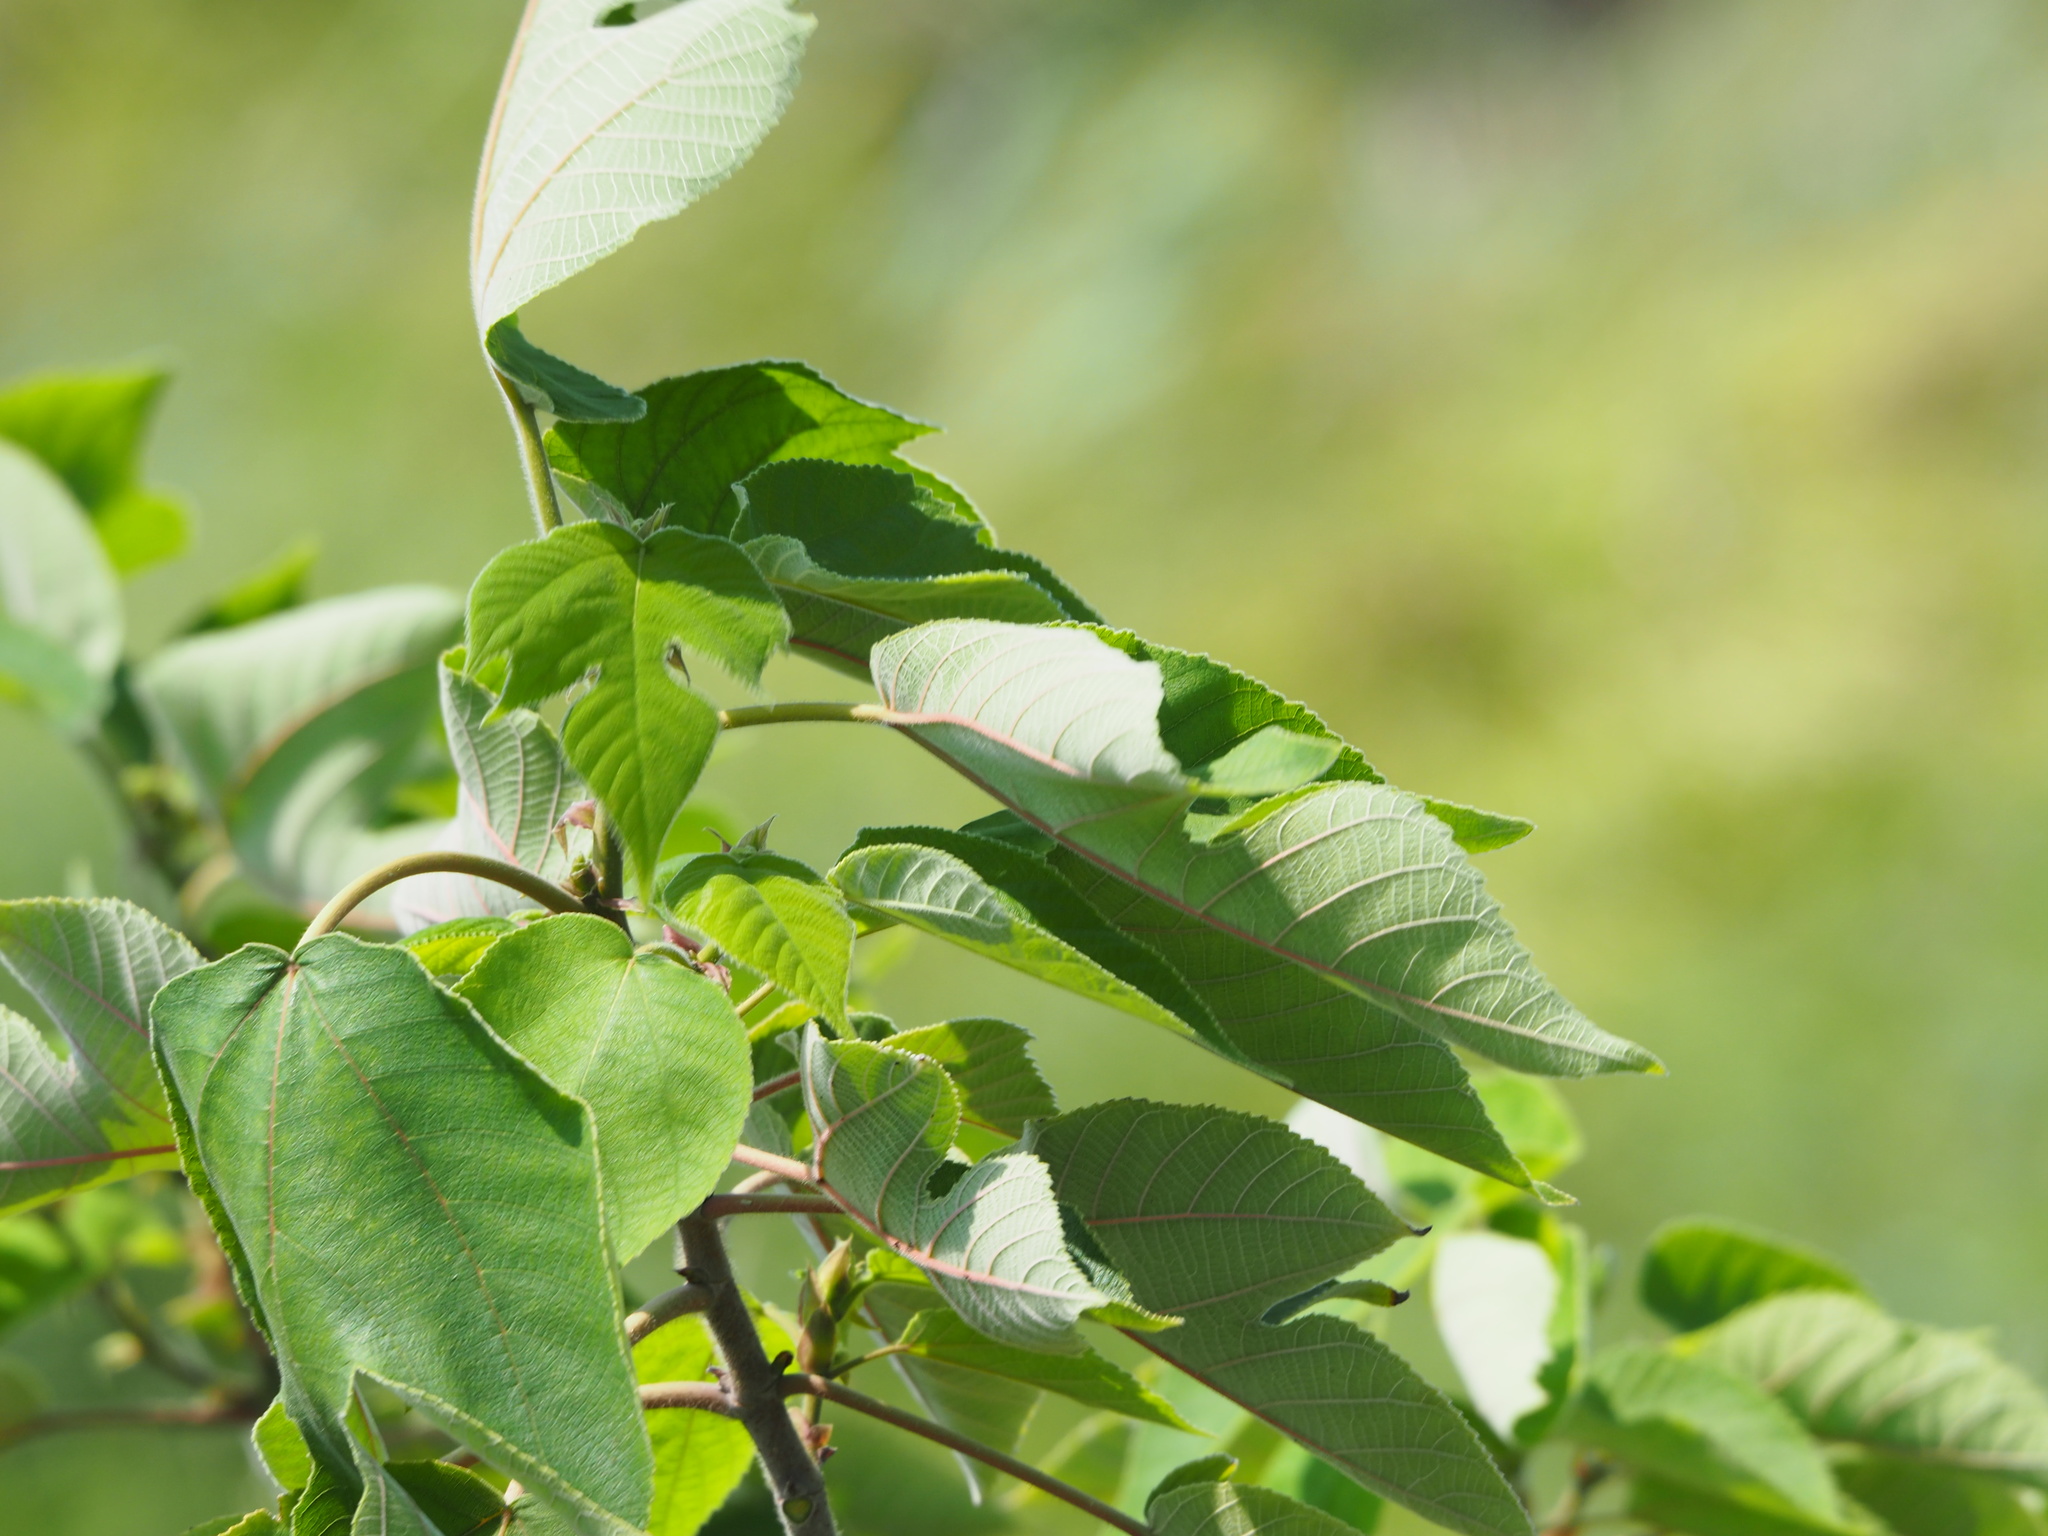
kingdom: Plantae
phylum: Tracheophyta
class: Magnoliopsida
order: Rosales
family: Moraceae
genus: Broussonetia
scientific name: Broussonetia papyrifera
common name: Paper mulberry
